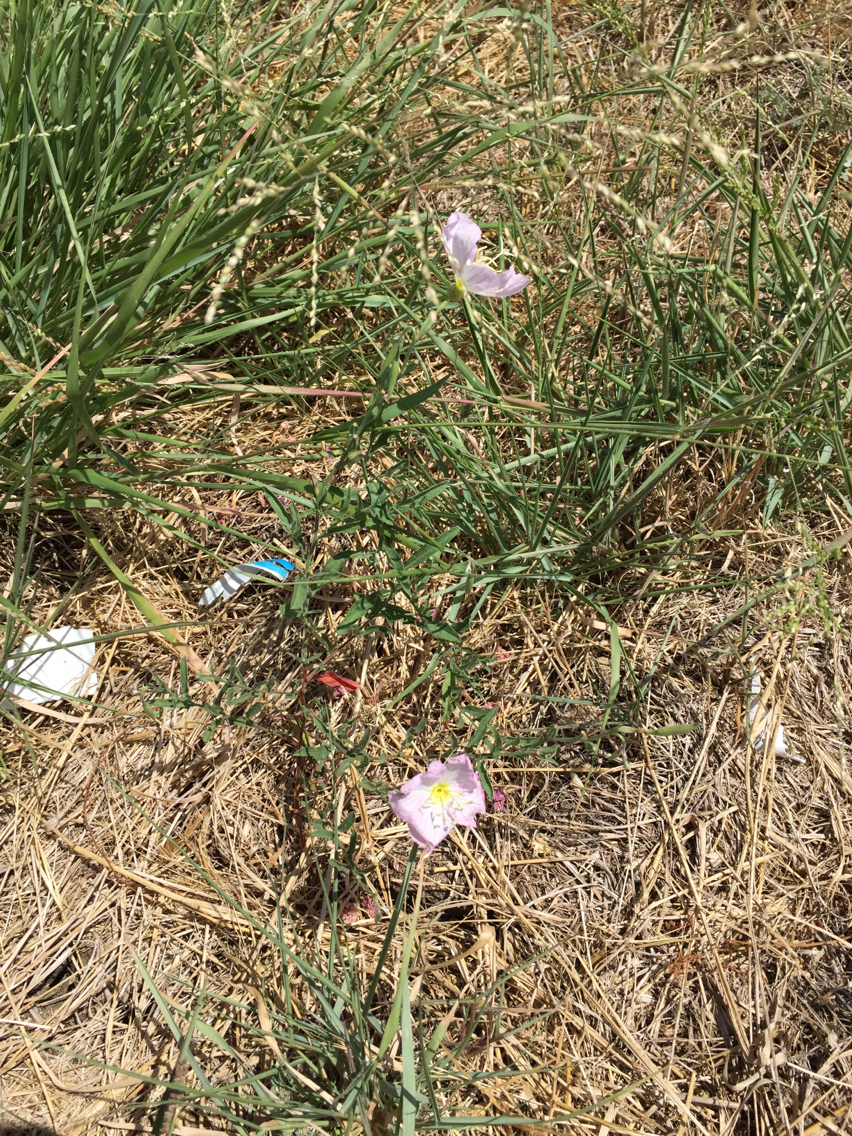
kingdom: Plantae
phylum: Tracheophyta
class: Magnoliopsida
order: Myrtales
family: Onagraceae
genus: Oenothera
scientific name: Oenothera speciosa
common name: White evening-primrose
